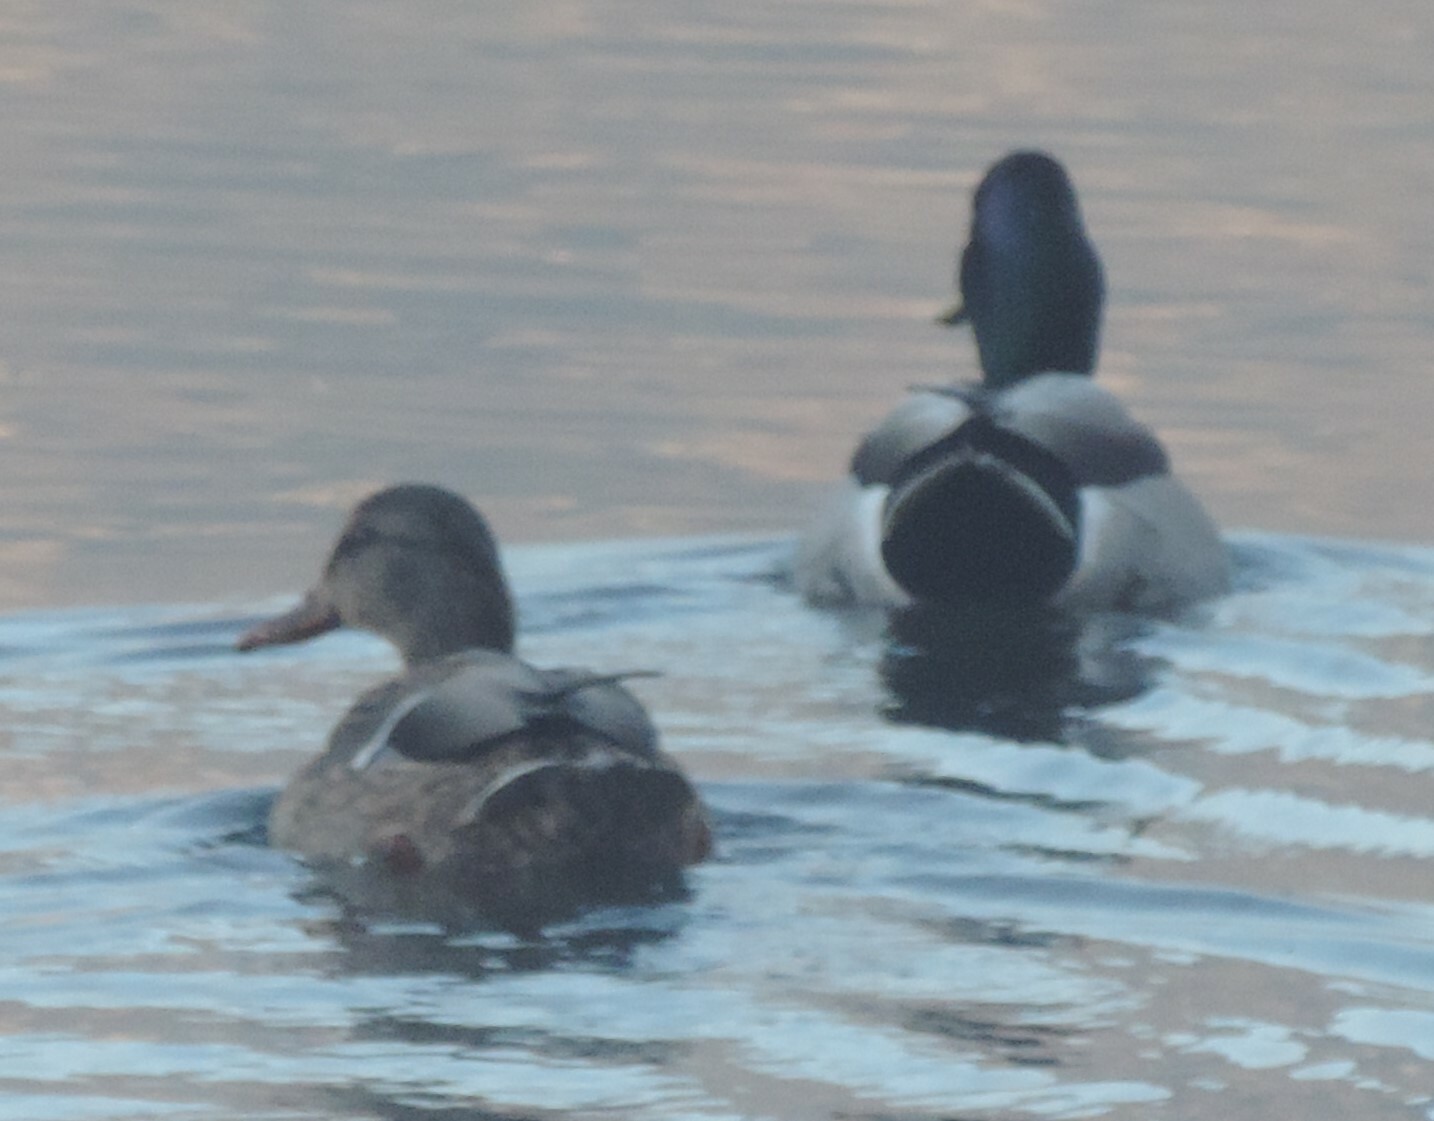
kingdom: Animalia
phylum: Chordata
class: Aves
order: Anseriformes
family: Anatidae
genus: Anas
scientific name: Anas platyrhynchos
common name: Mallard
